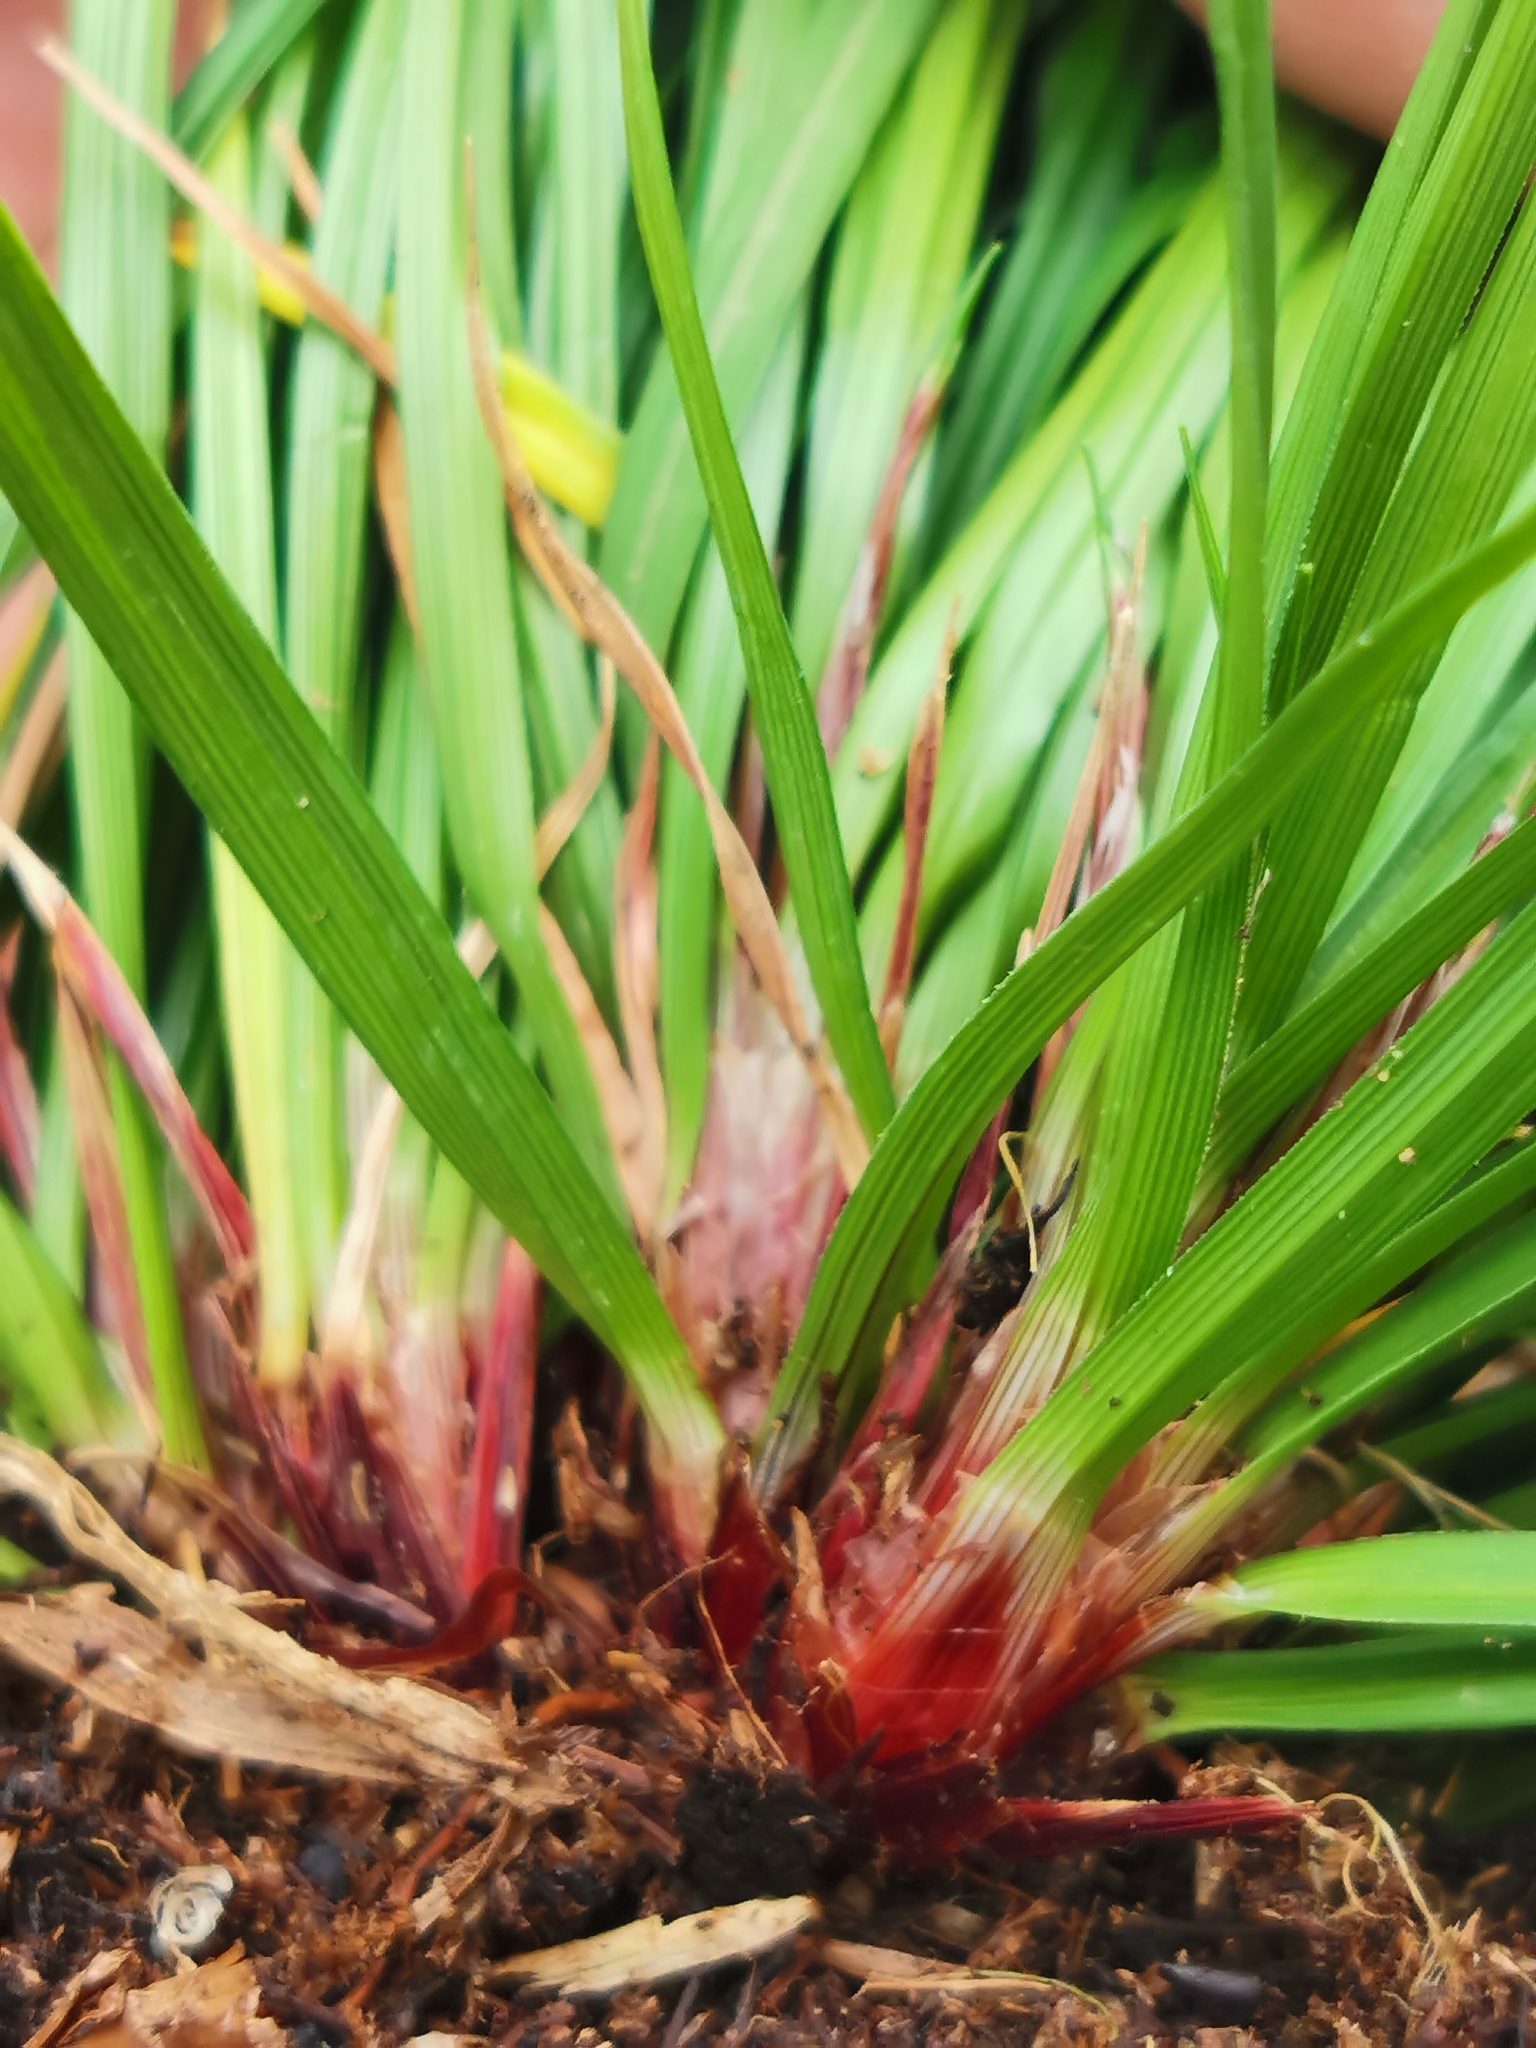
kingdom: Plantae
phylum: Tracheophyta
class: Liliopsida
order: Poales
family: Cyperaceae
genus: Carex
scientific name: Carex digitata
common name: Fingered sedge
